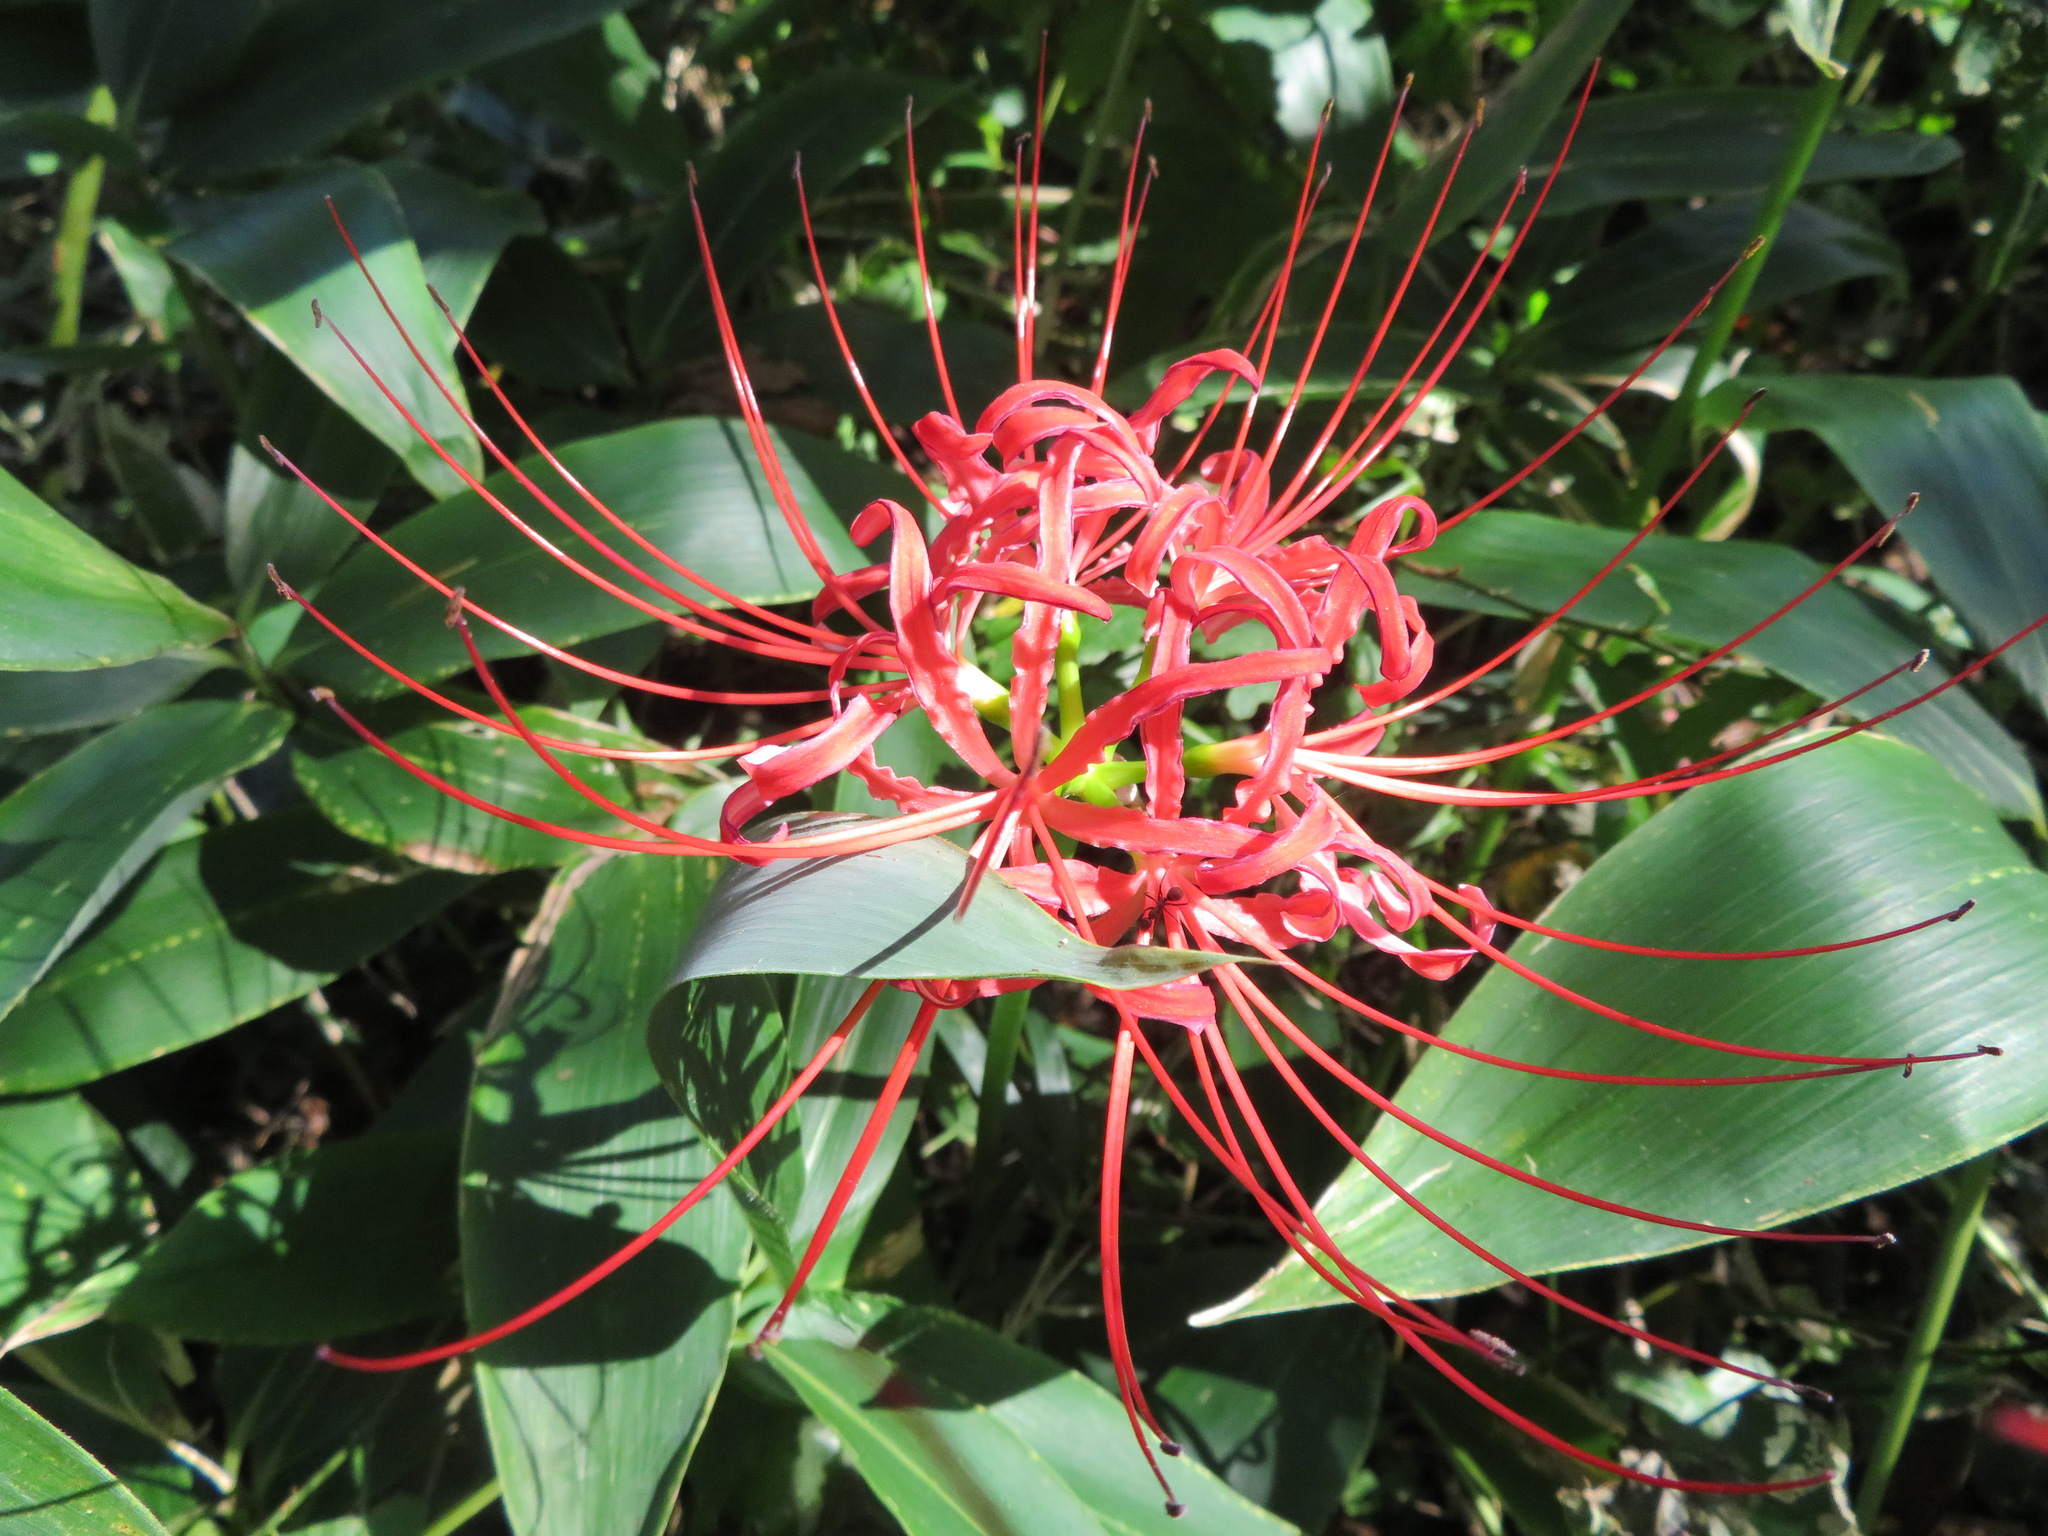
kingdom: Plantae
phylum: Tracheophyta
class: Liliopsida
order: Asparagales
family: Amaryllidaceae
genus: Lycoris
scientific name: Lycoris radiata
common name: Red spider lily
